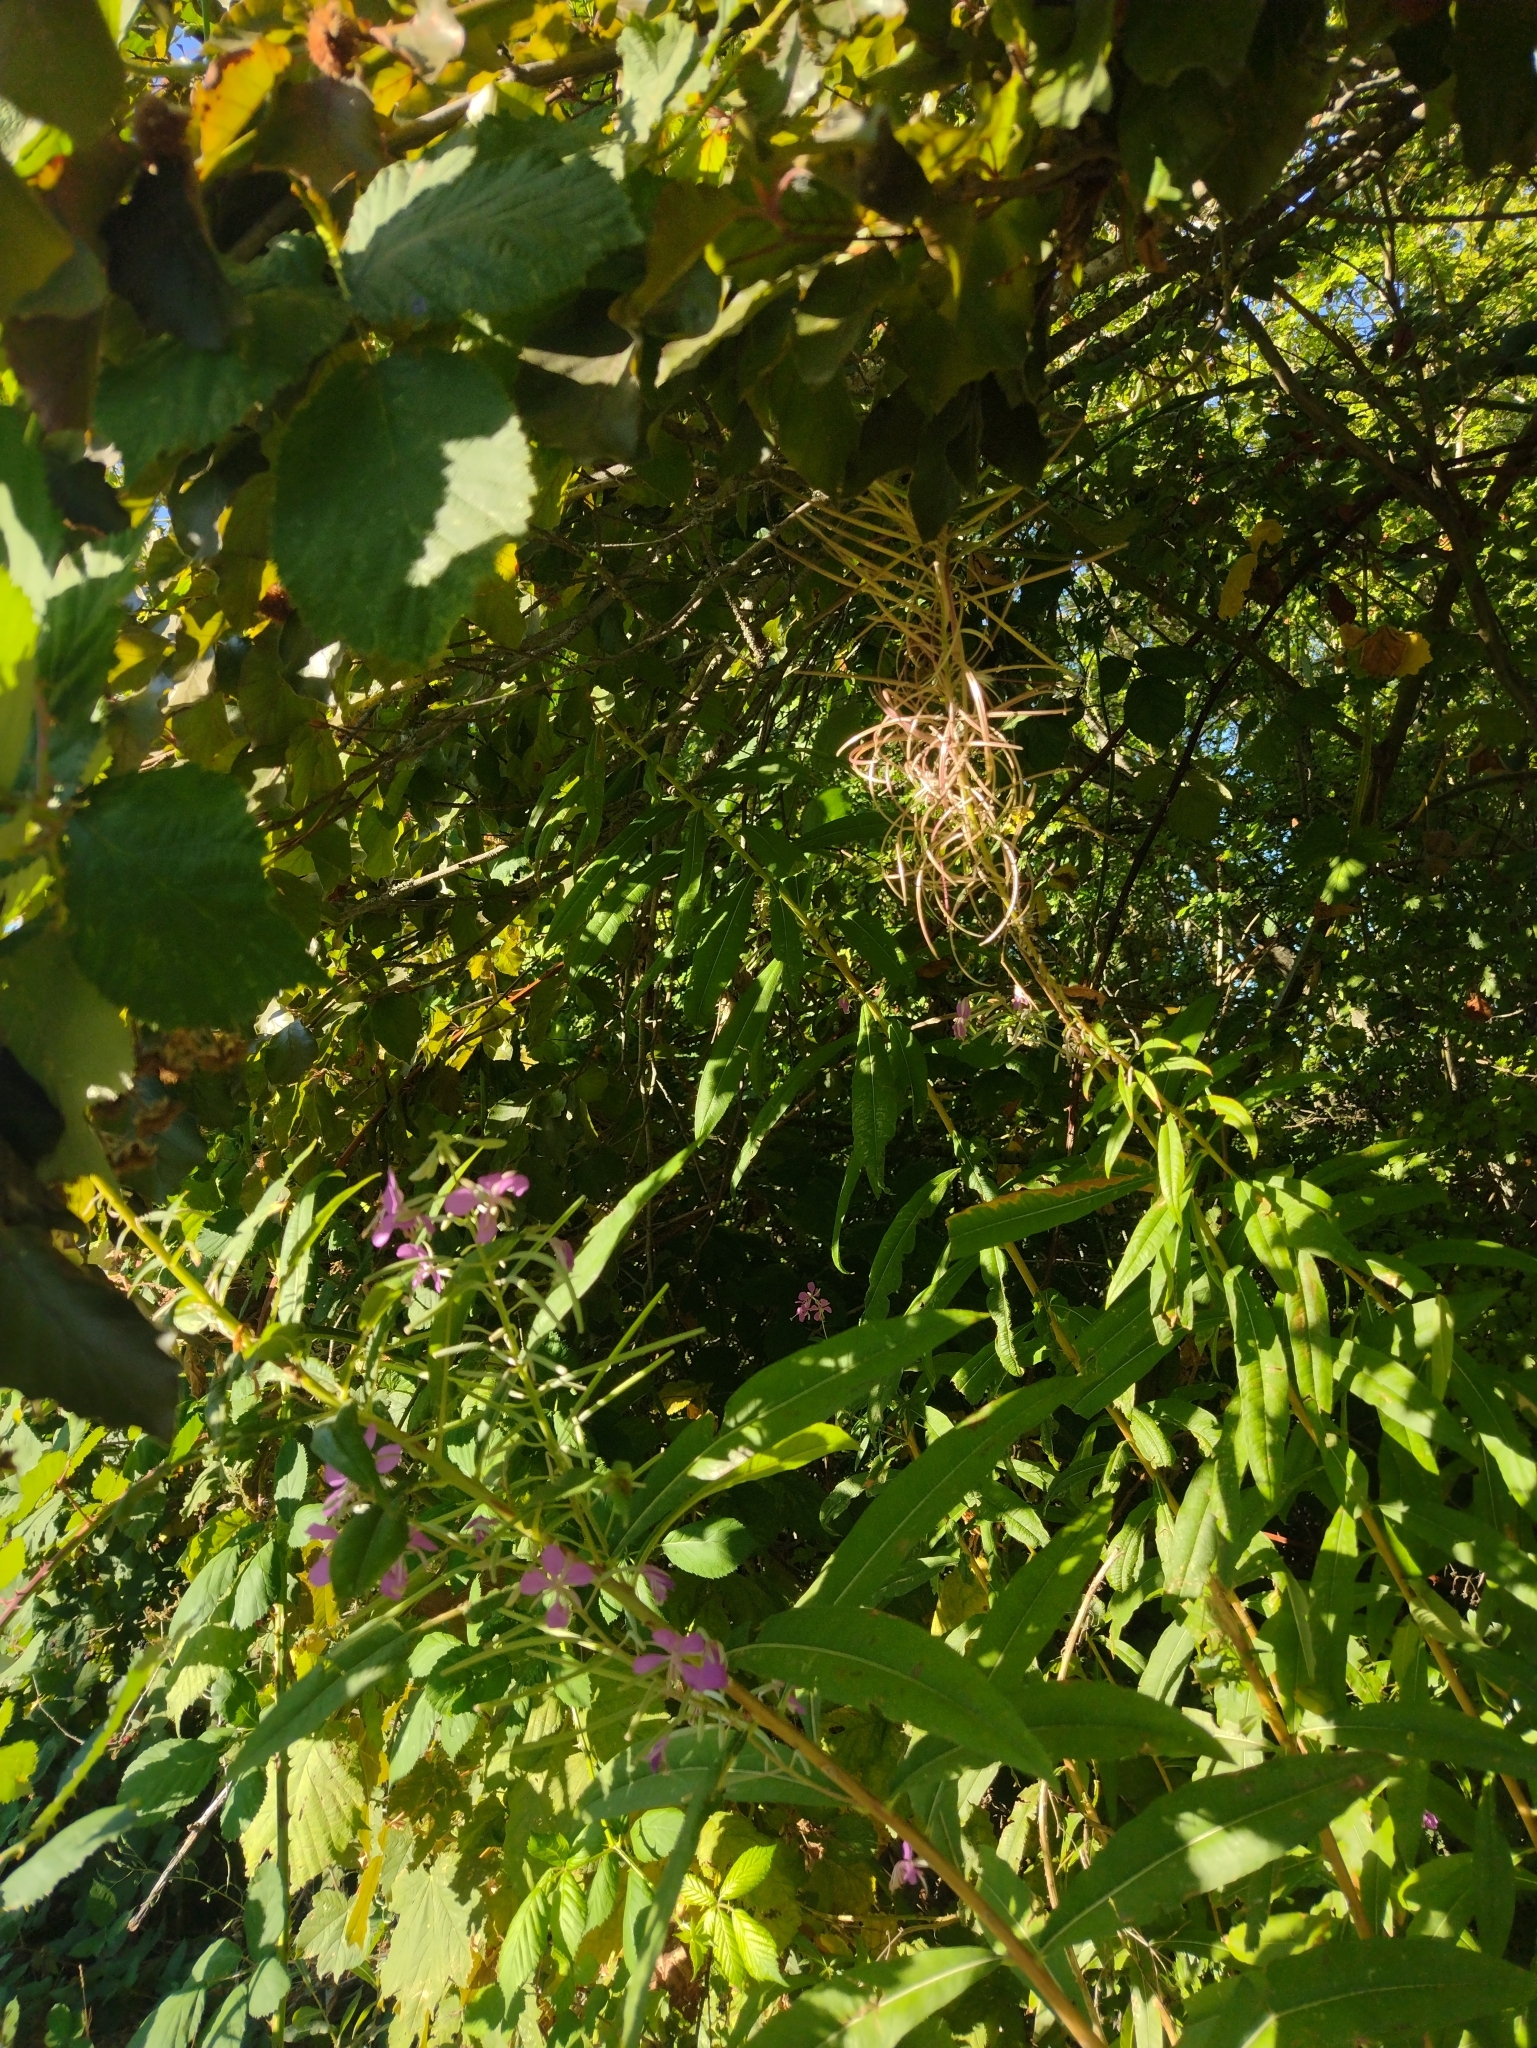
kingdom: Plantae
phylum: Tracheophyta
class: Magnoliopsida
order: Myrtales
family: Onagraceae
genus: Chamaenerion
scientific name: Chamaenerion angustifolium
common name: Fireweed
